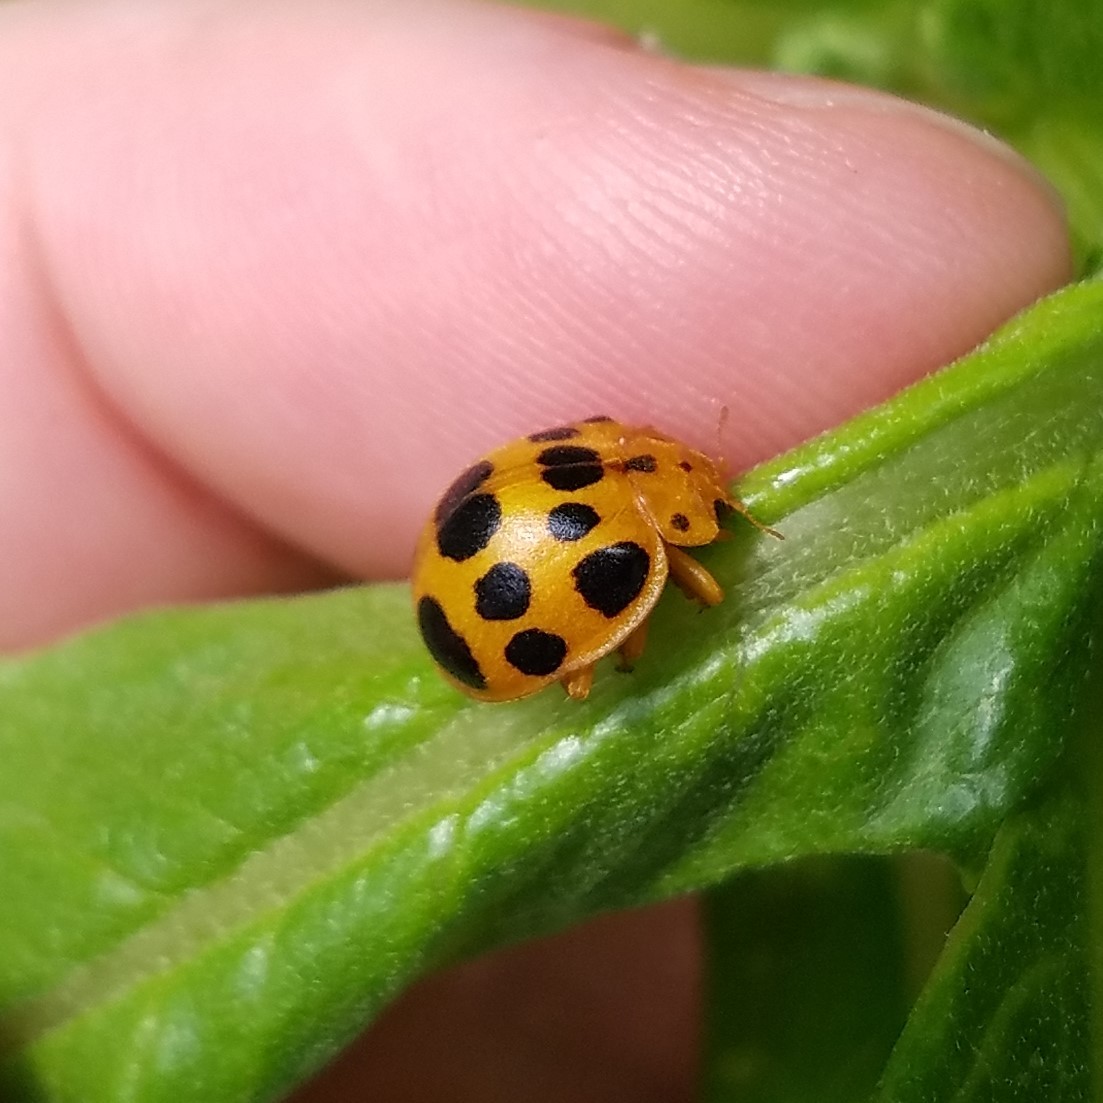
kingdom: Animalia
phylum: Arthropoda
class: Insecta
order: Coleoptera
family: Coccinellidae
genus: Epilachna
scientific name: Epilachna borealis
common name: Squash beetle
